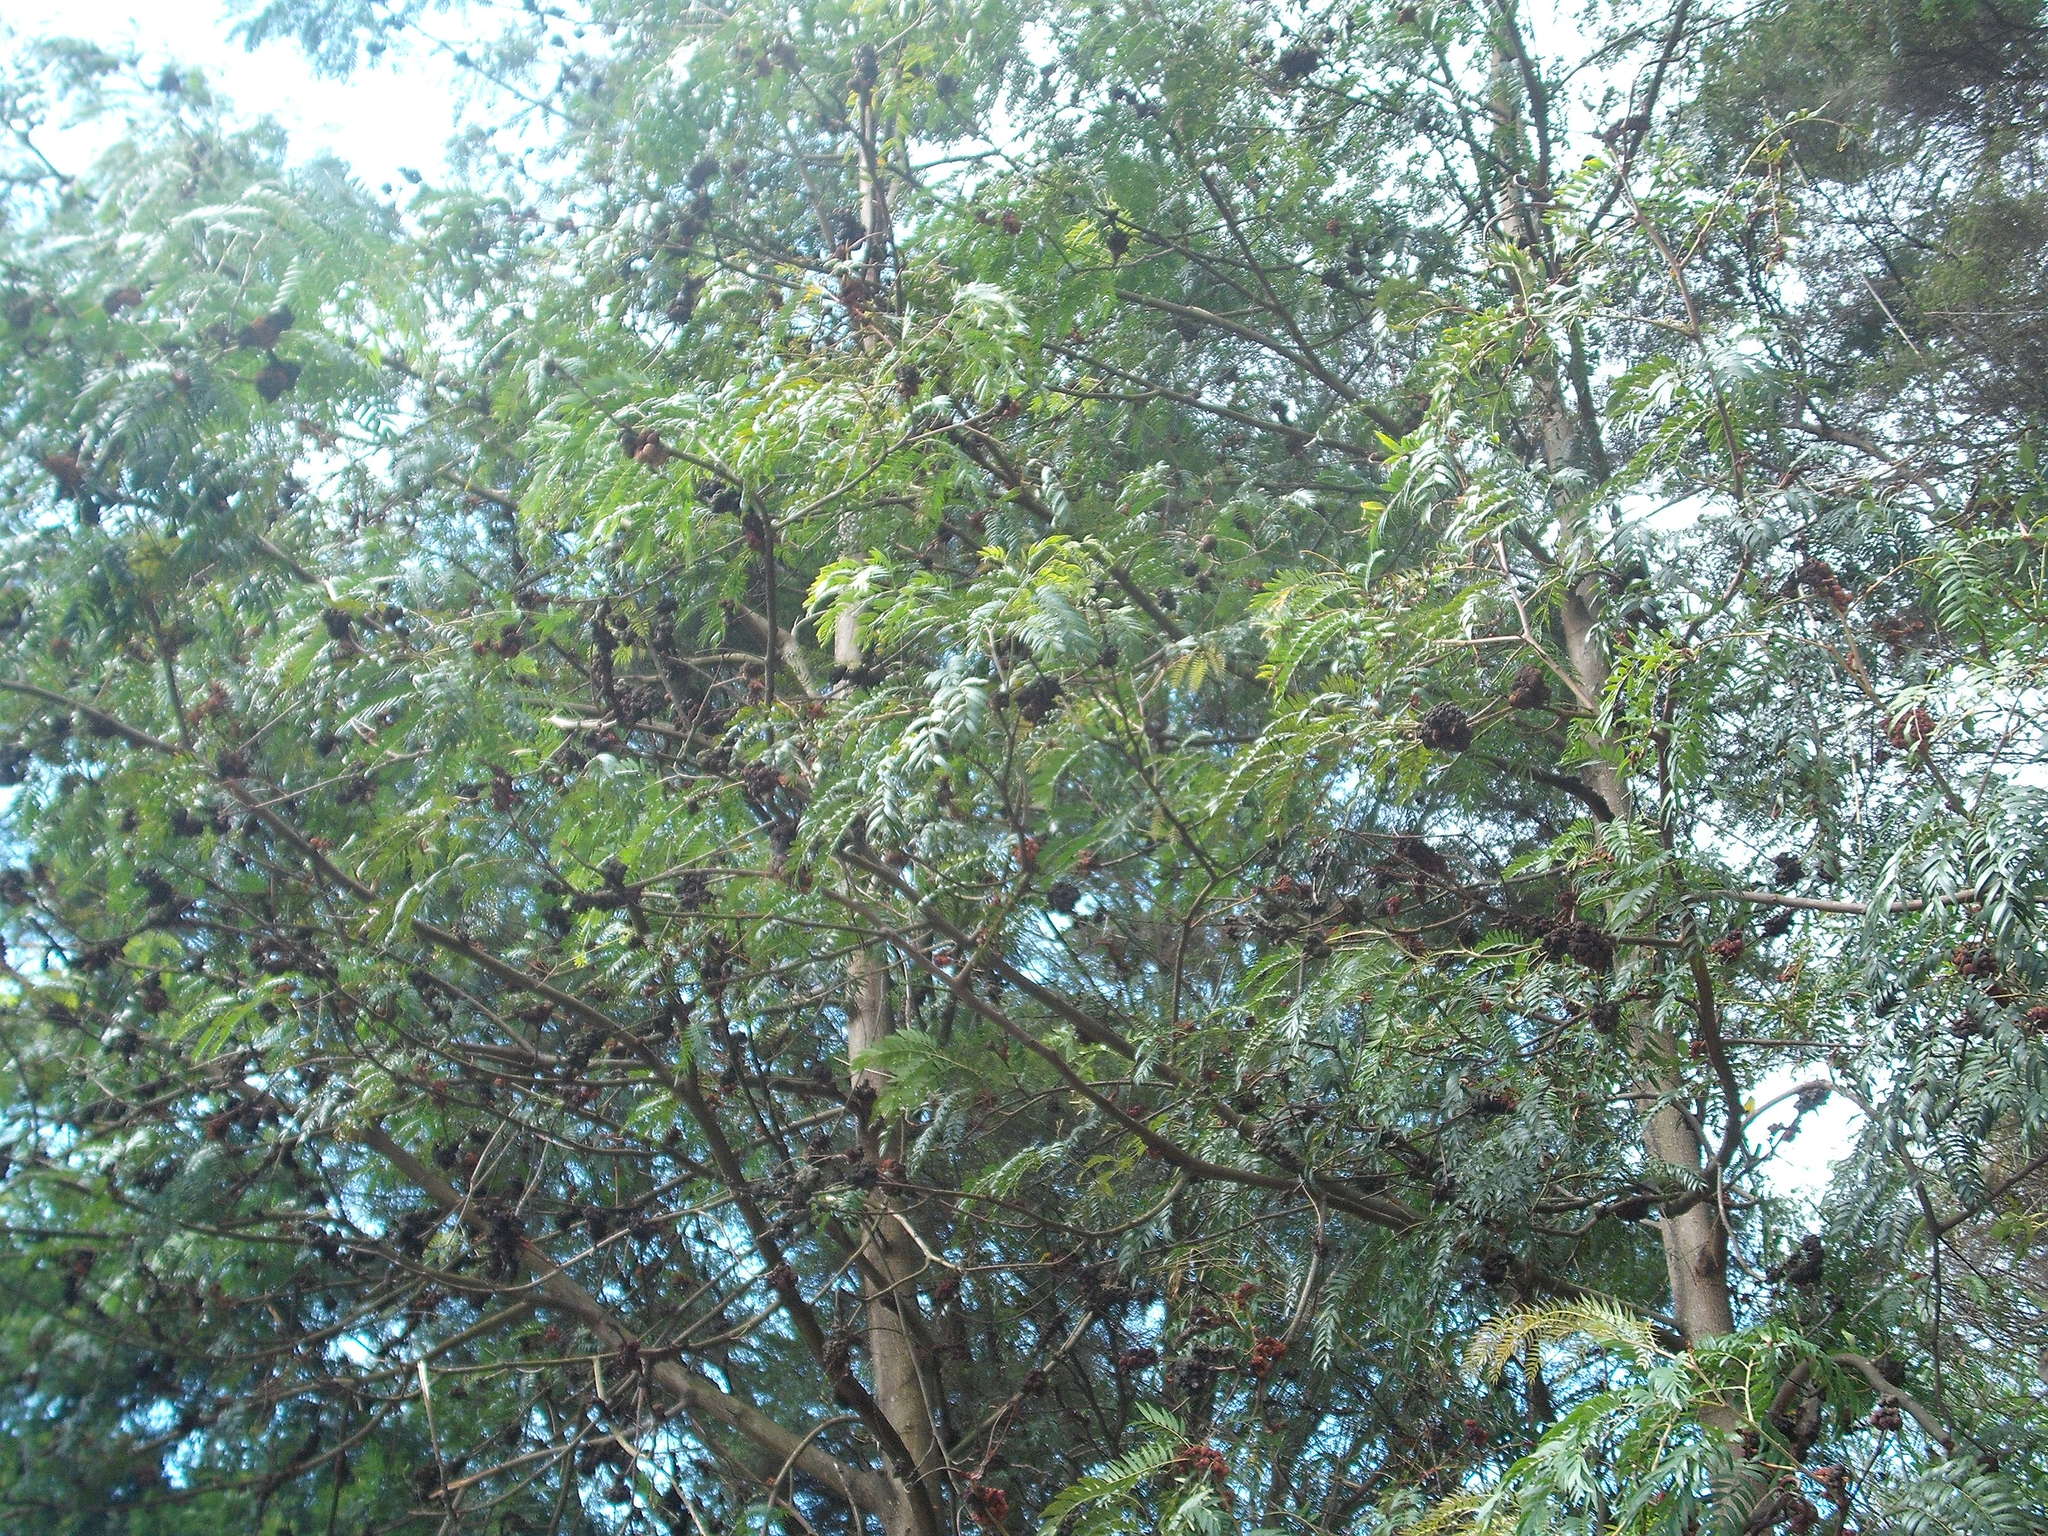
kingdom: Fungi
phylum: Basidiomycota
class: Pucciniomycetes
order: Pucciniales
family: Uromycladiaceae
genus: Uromycladium
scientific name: Uromycladium murphyi
